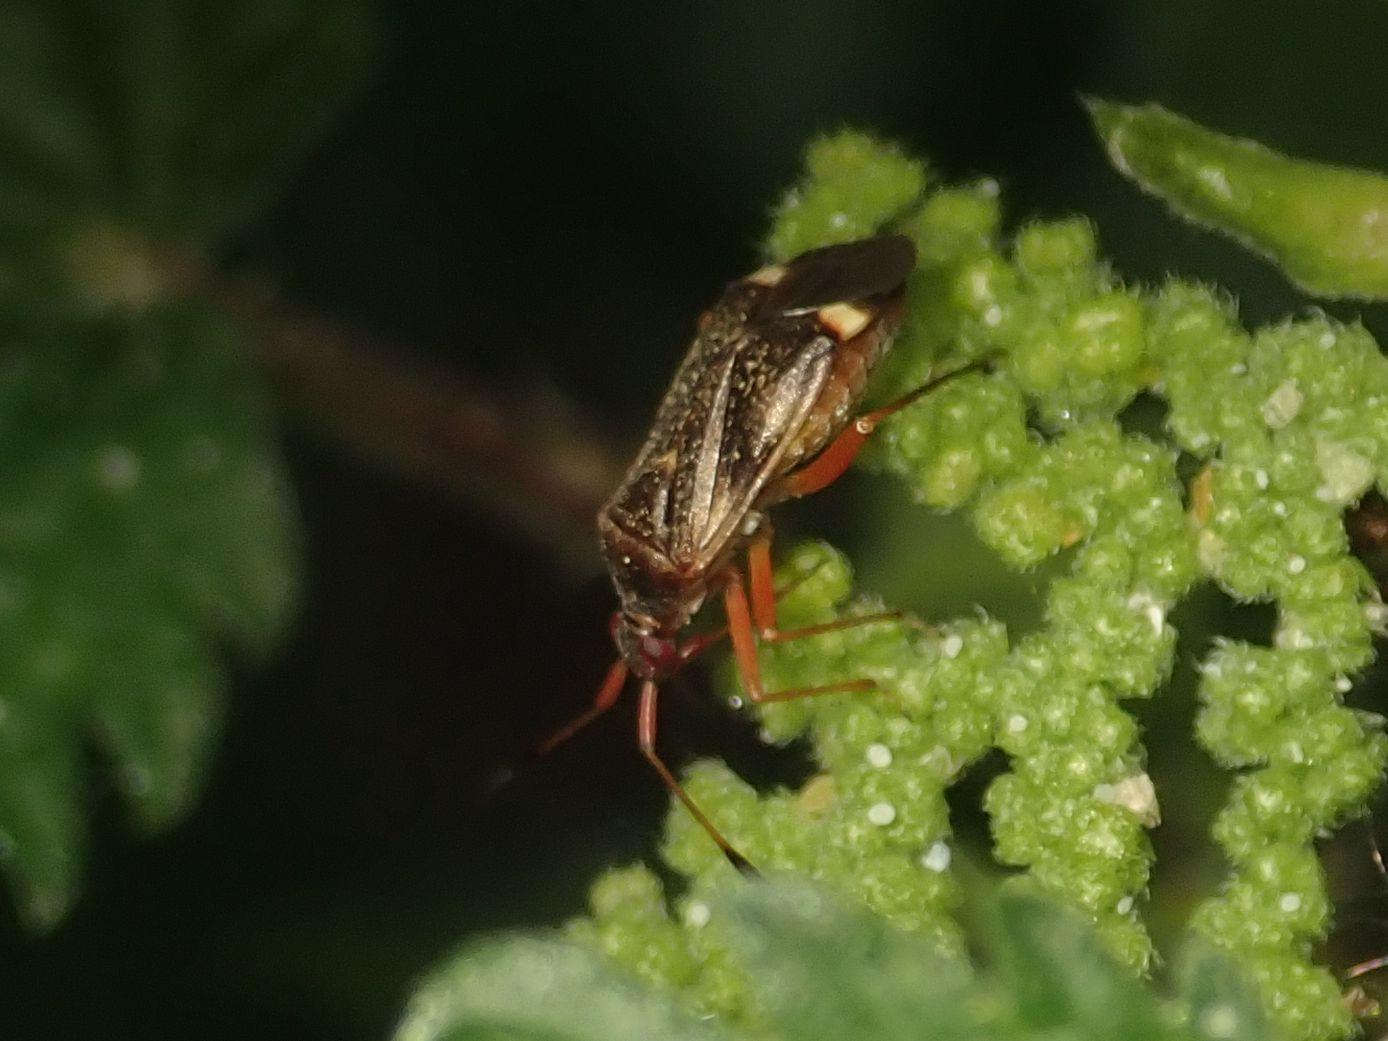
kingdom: Animalia
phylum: Arthropoda
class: Insecta
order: Hemiptera
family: Miridae
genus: Closterotomus
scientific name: Closterotomus biclavatus
